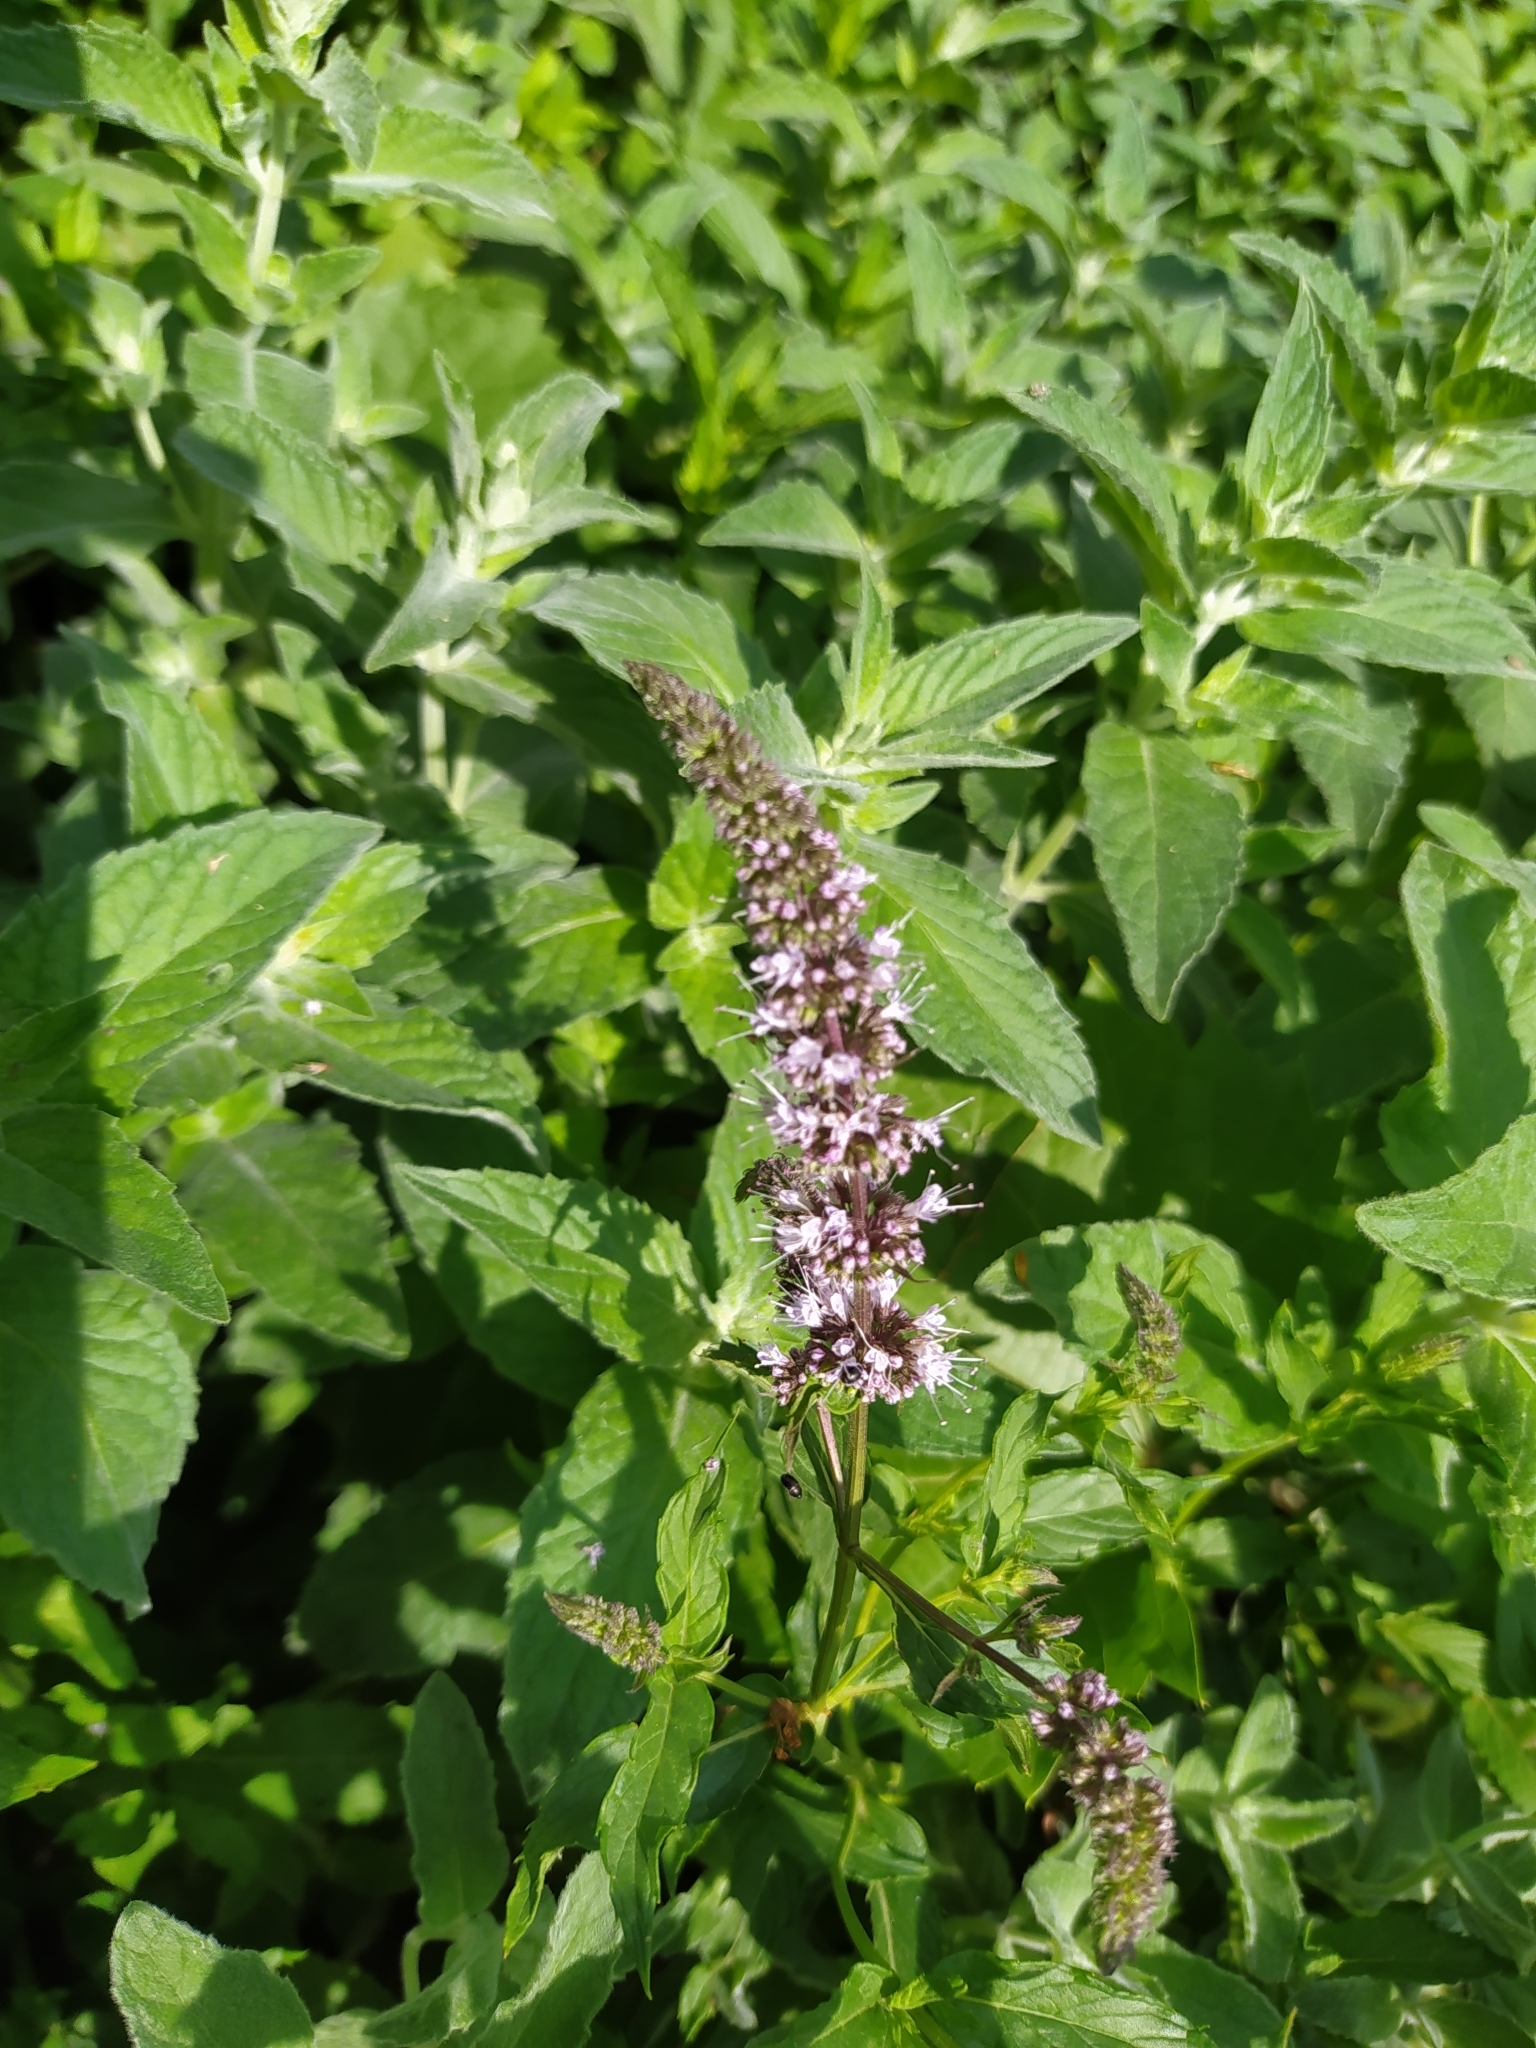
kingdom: Plantae
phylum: Tracheophyta
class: Magnoliopsida
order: Lamiales
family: Lamiaceae
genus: Mentha
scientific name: Mentha spicata
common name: Spearmint
